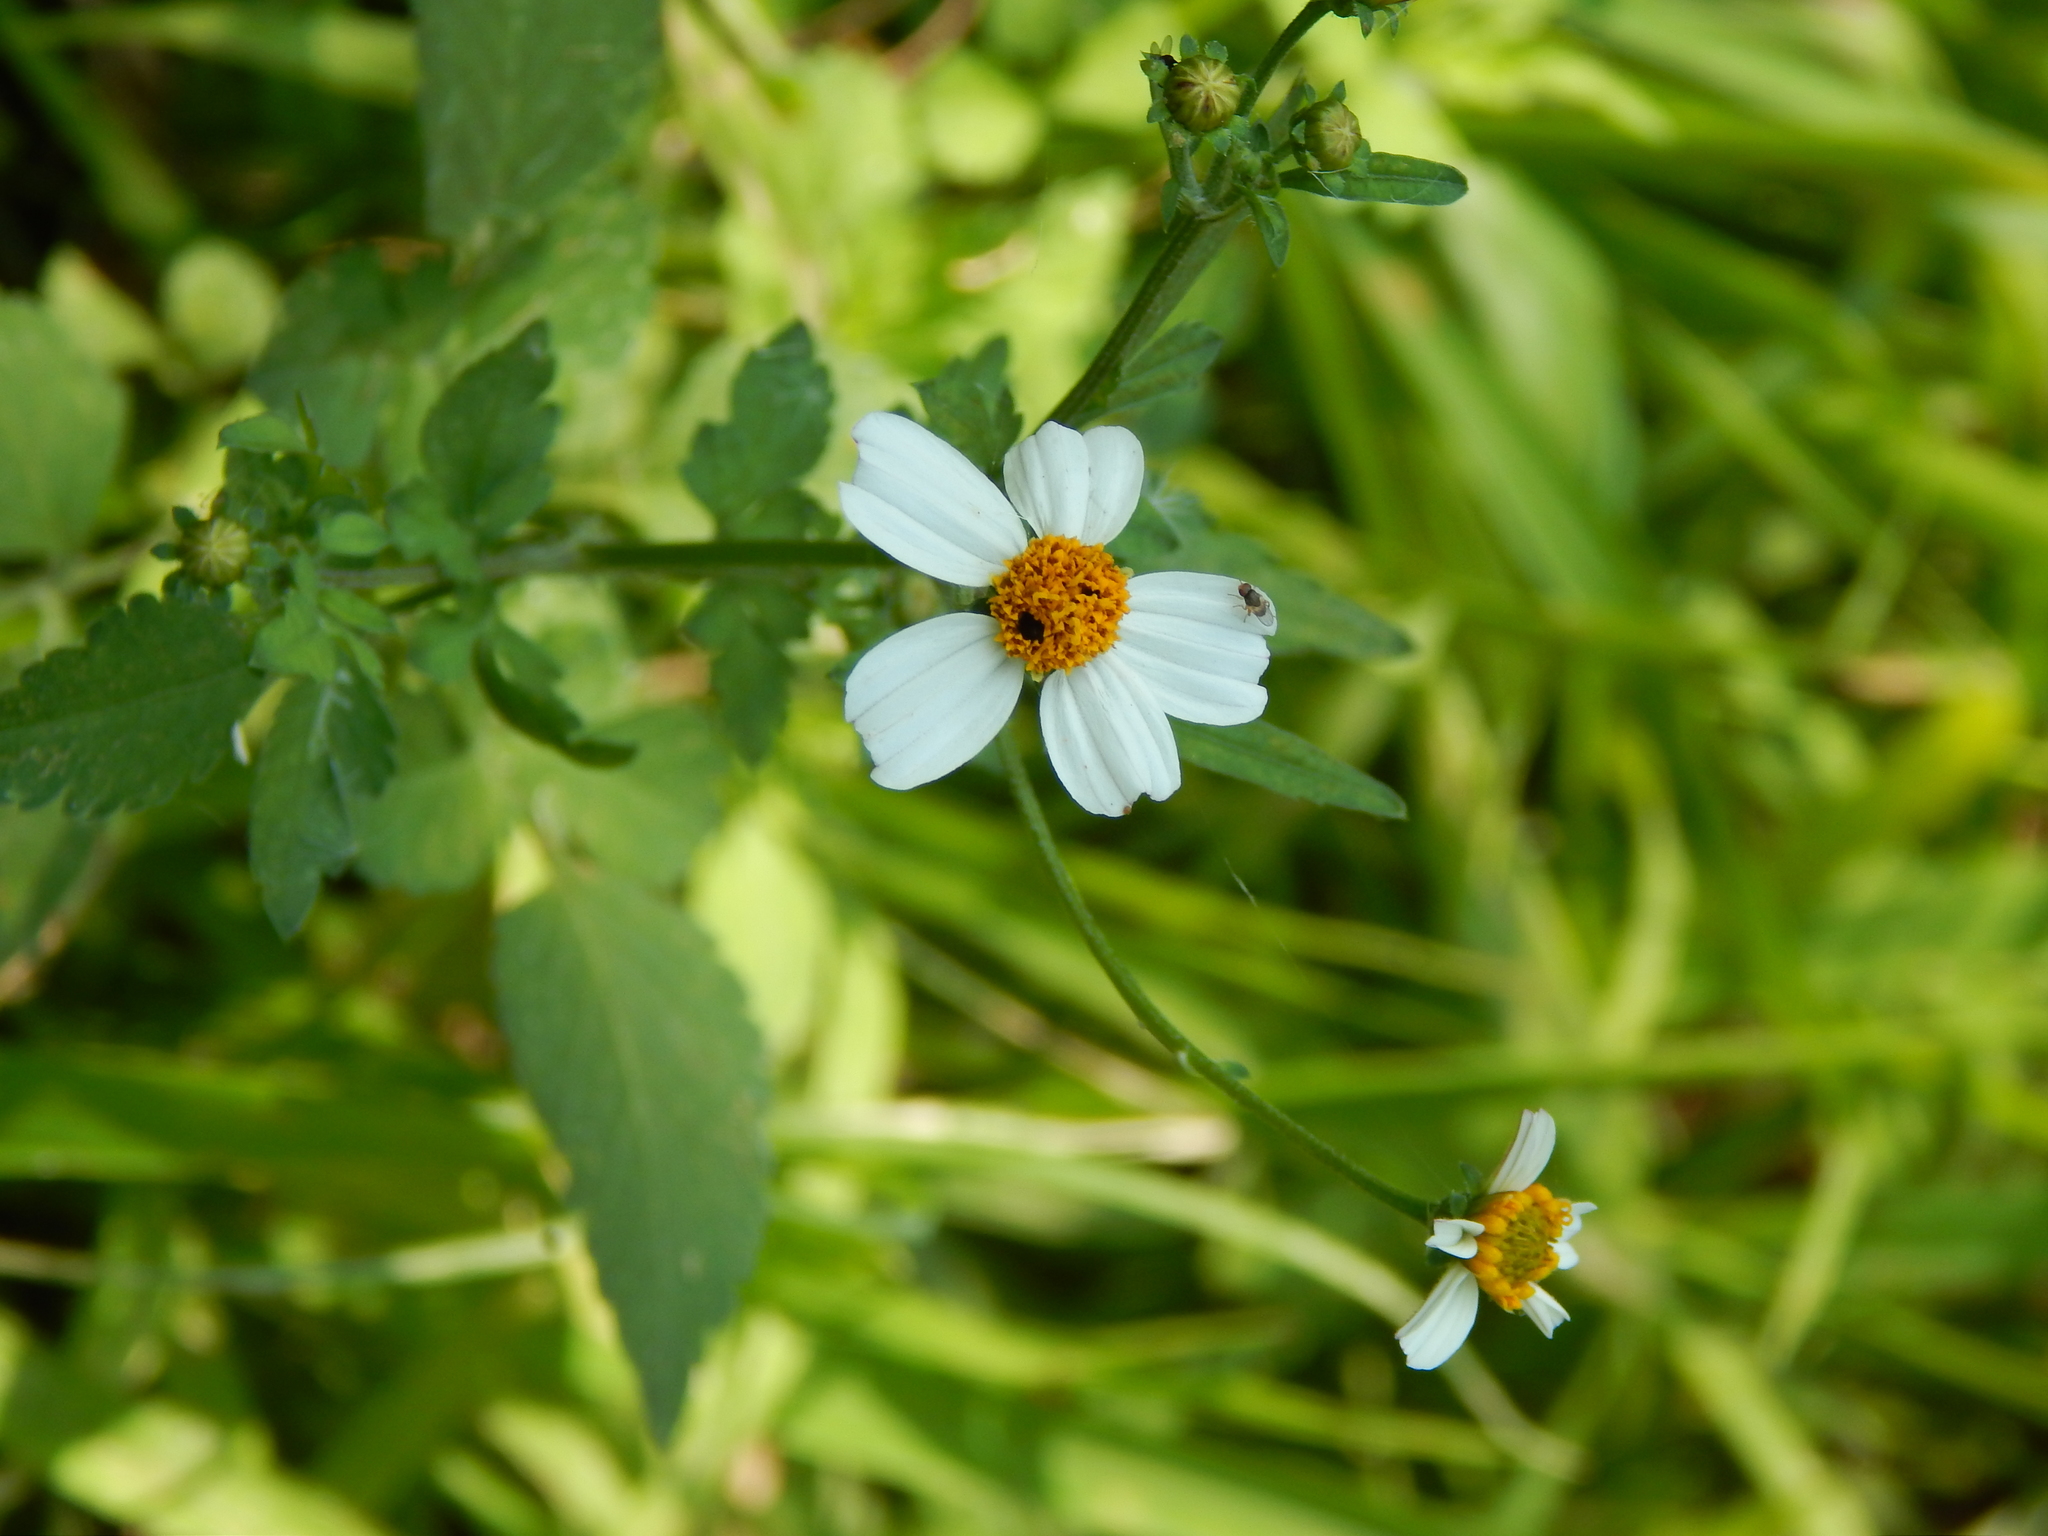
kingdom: Plantae
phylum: Tracheophyta
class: Magnoliopsida
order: Asterales
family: Asteraceae
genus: Bidens
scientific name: Bidens odorata
